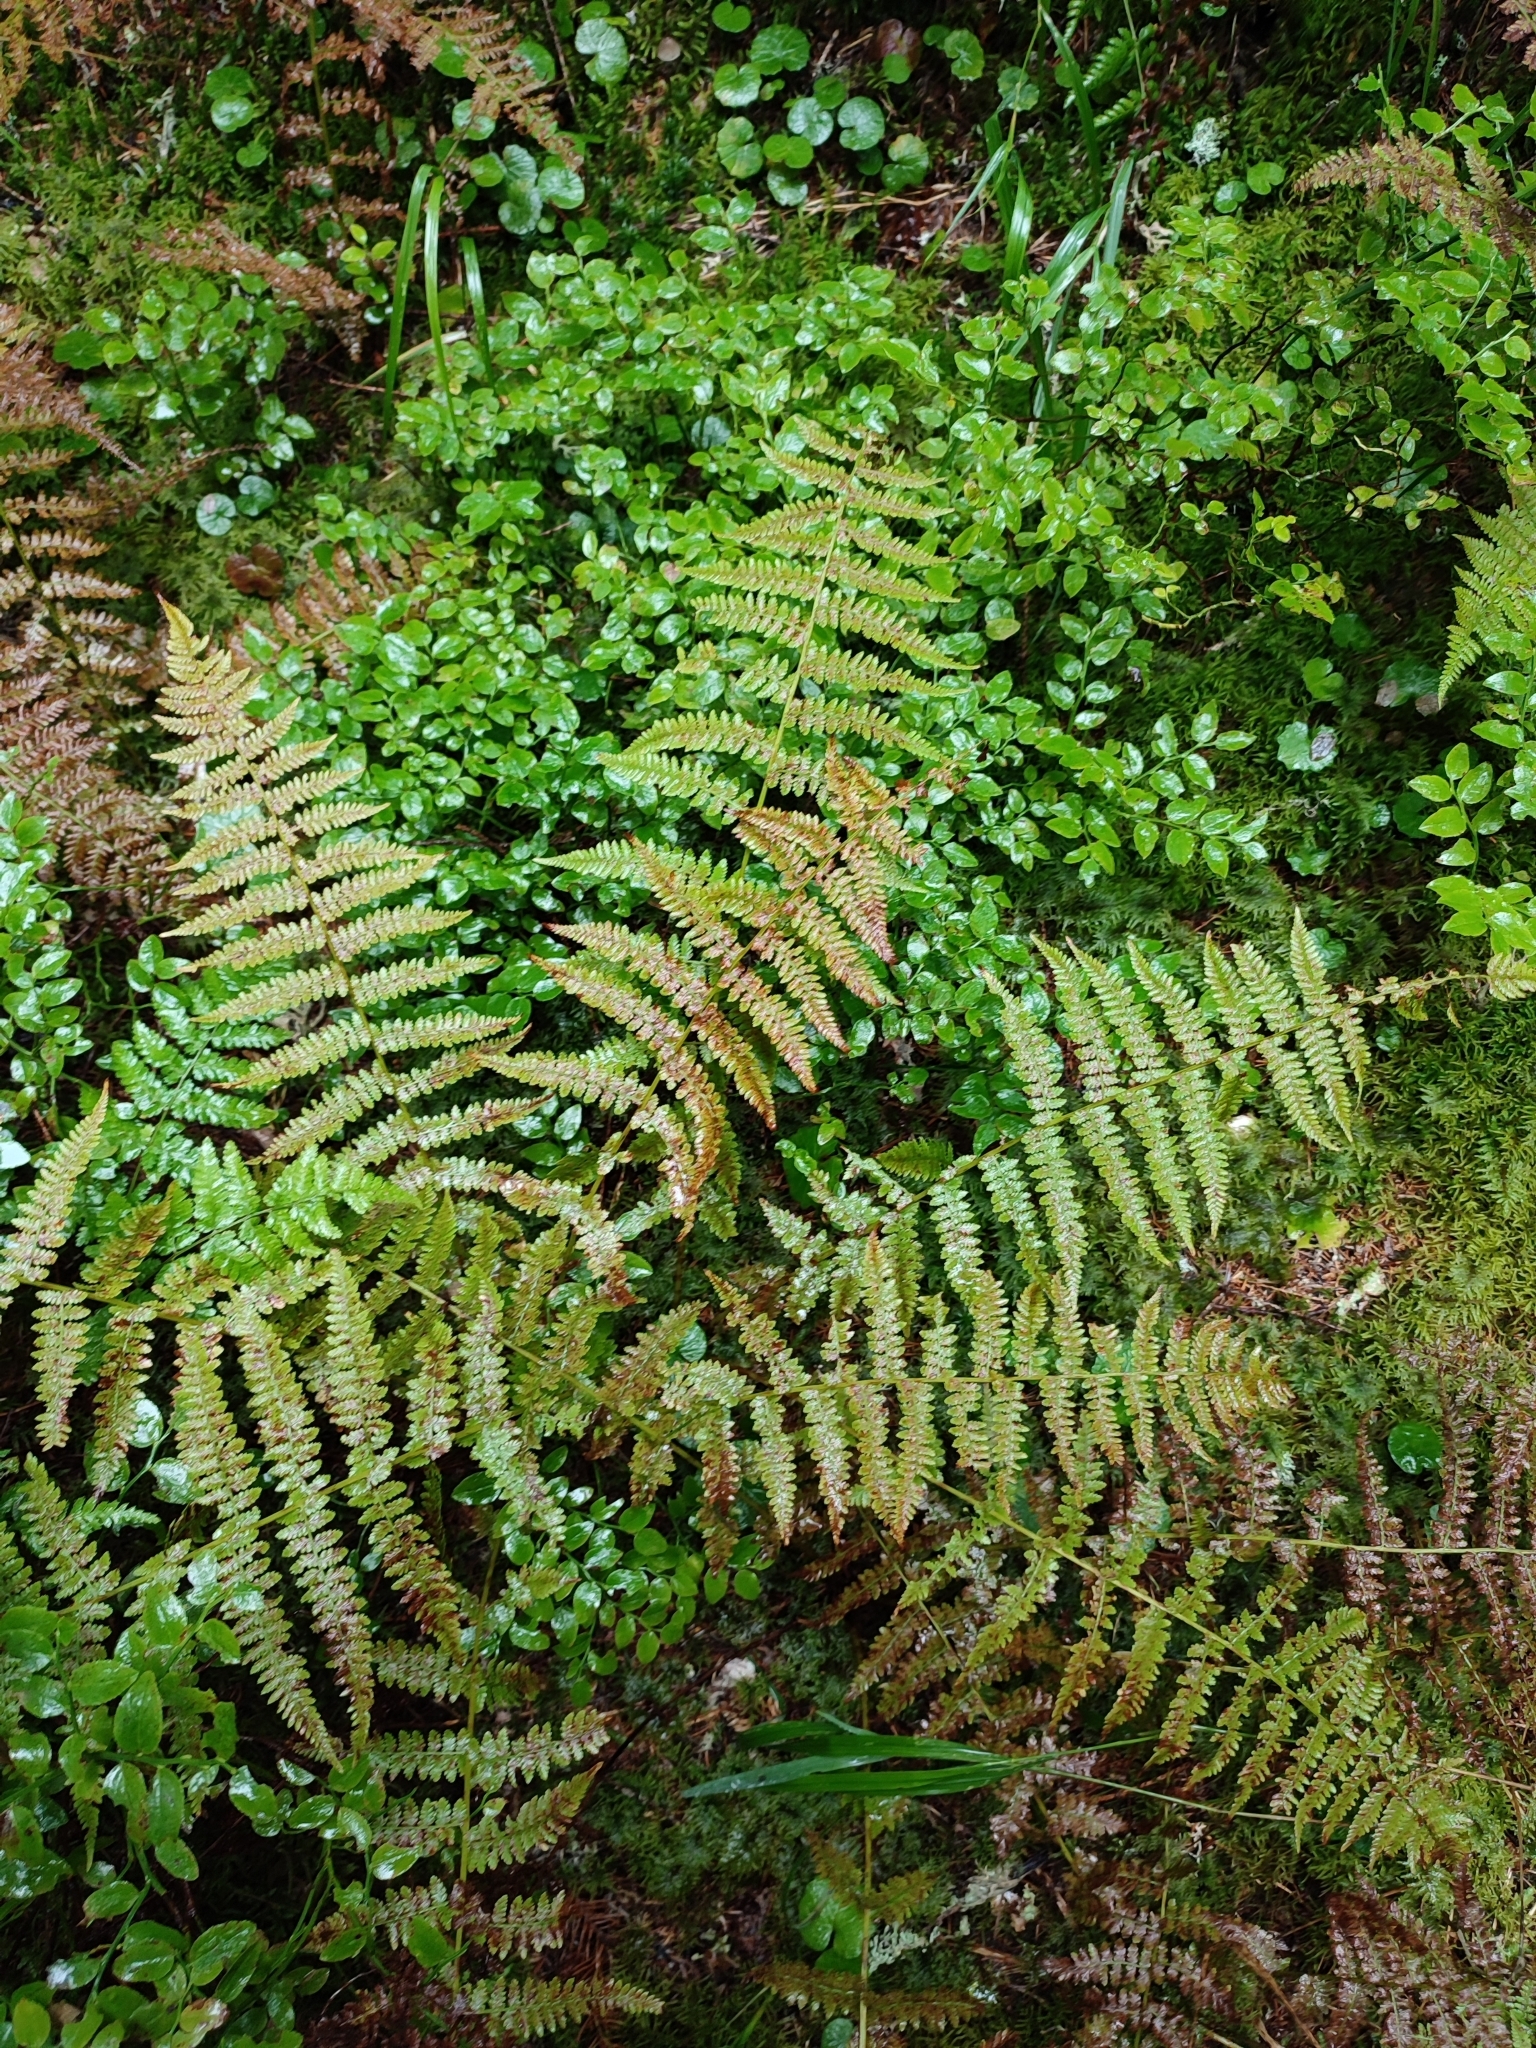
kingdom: Plantae
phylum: Tracheophyta
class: Polypodiopsida
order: Polypodiales
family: Athyriaceae
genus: Pseudathyrium
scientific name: Pseudathyrium alpestre
